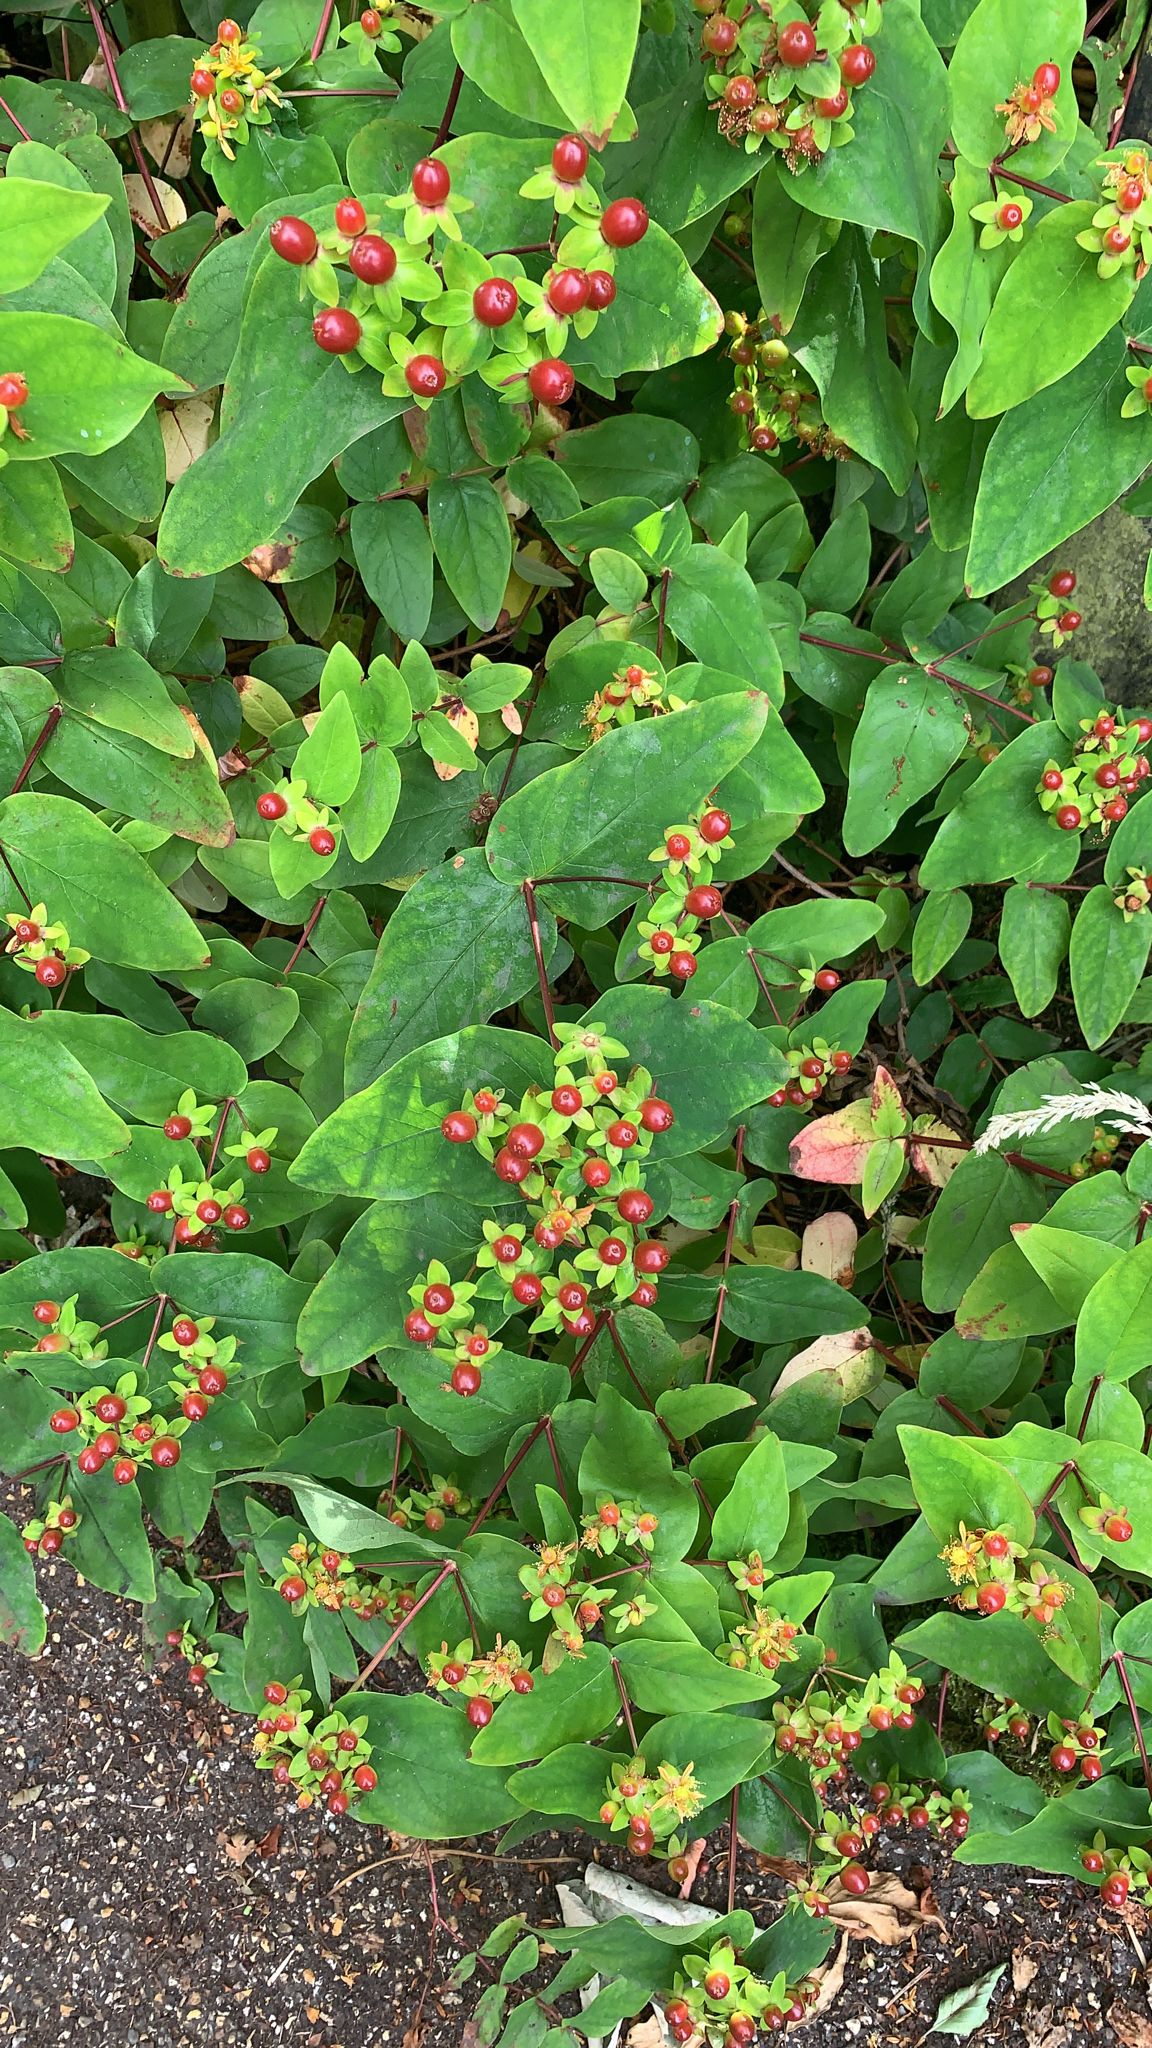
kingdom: Plantae
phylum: Tracheophyta
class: Magnoliopsida
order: Malpighiales
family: Hypericaceae
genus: Hypericum
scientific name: Hypericum androsaemum
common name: Sweet-amber
